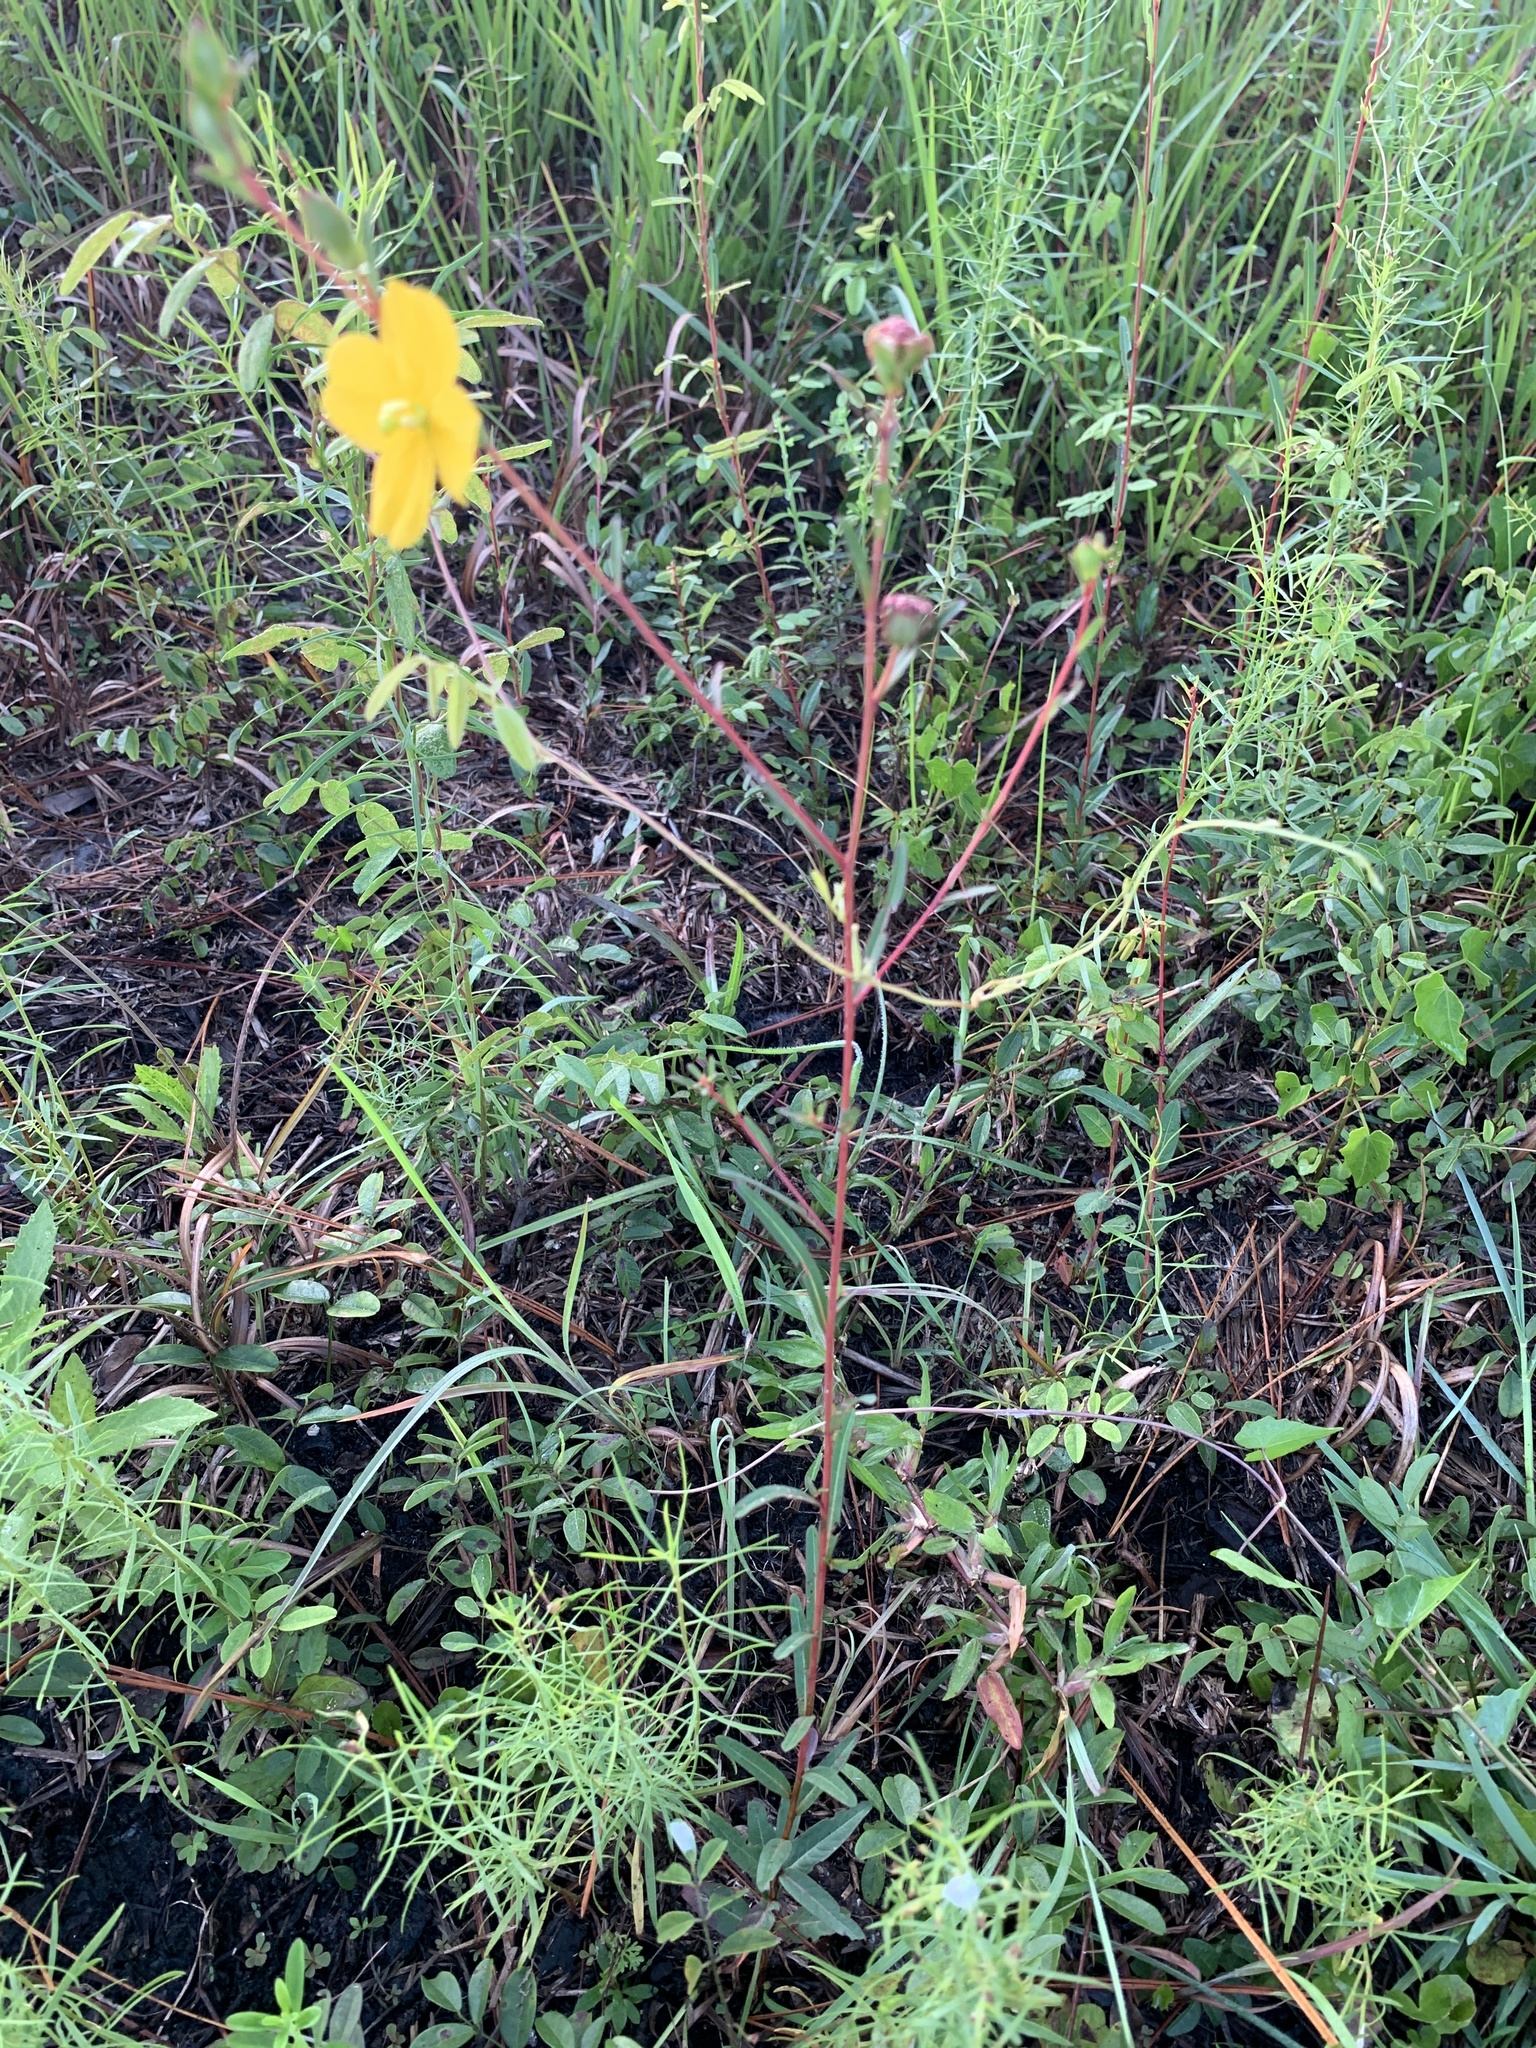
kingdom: Plantae
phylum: Tracheophyta
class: Magnoliopsida
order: Myrtales
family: Onagraceae
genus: Ludwigia
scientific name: Ludwigia maritima
